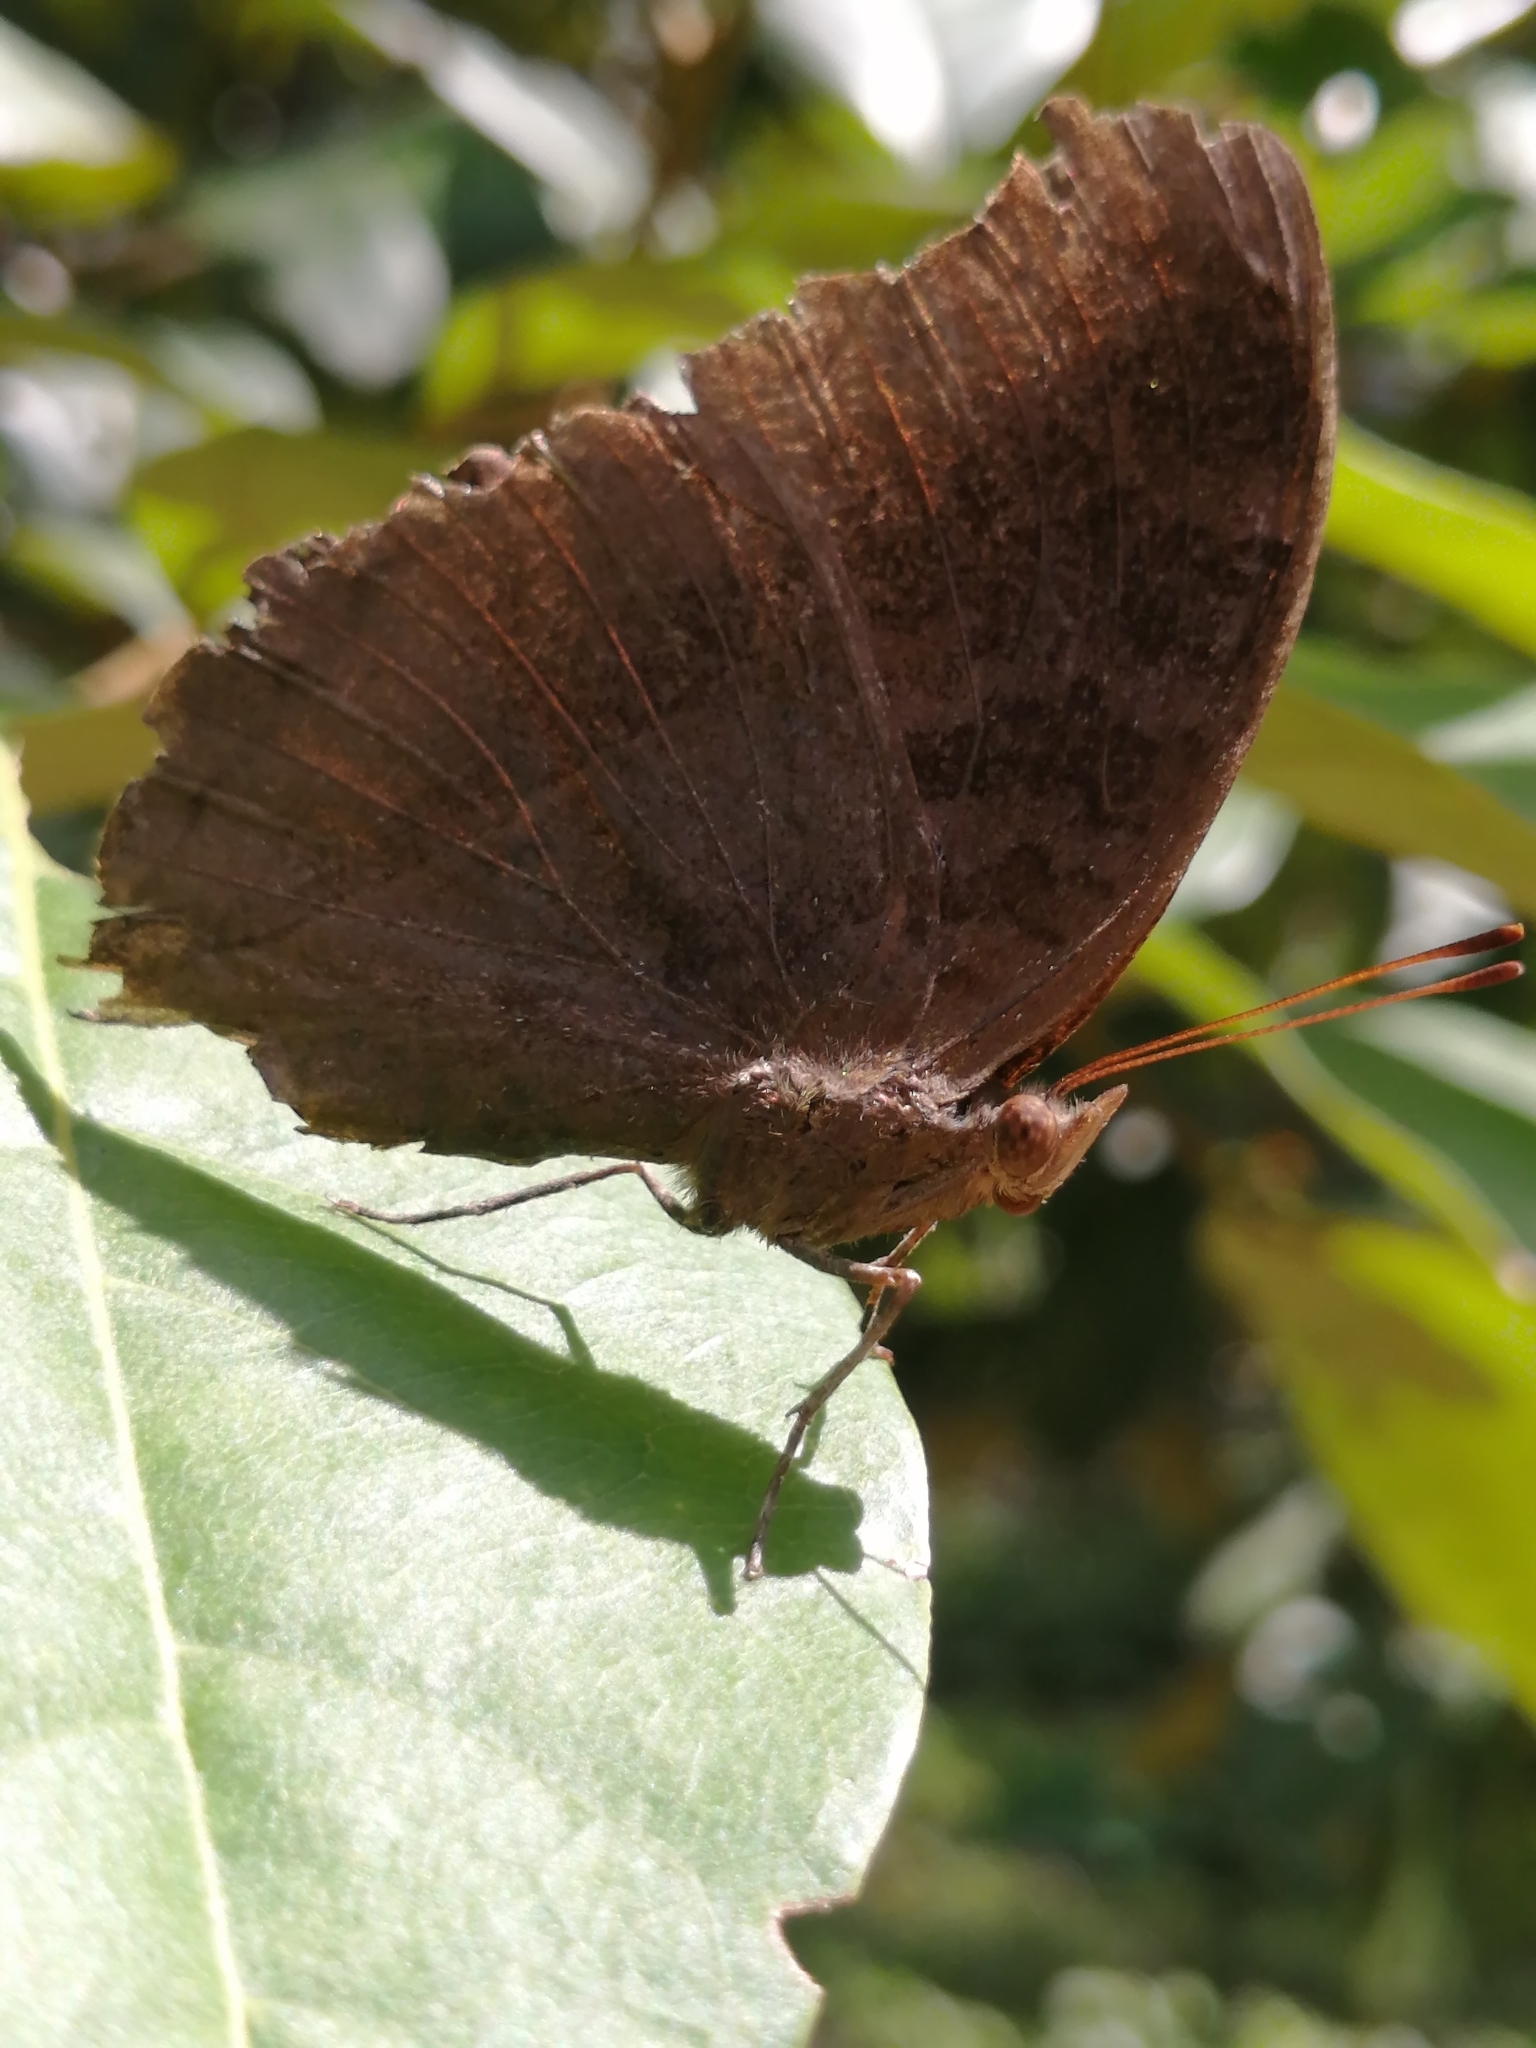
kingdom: Animalia
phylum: Arthropoda
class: Insecta
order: Lepidoptera
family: Nymphalidae
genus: Junonia
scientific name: Junonia iphita
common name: Chocolate pansy
